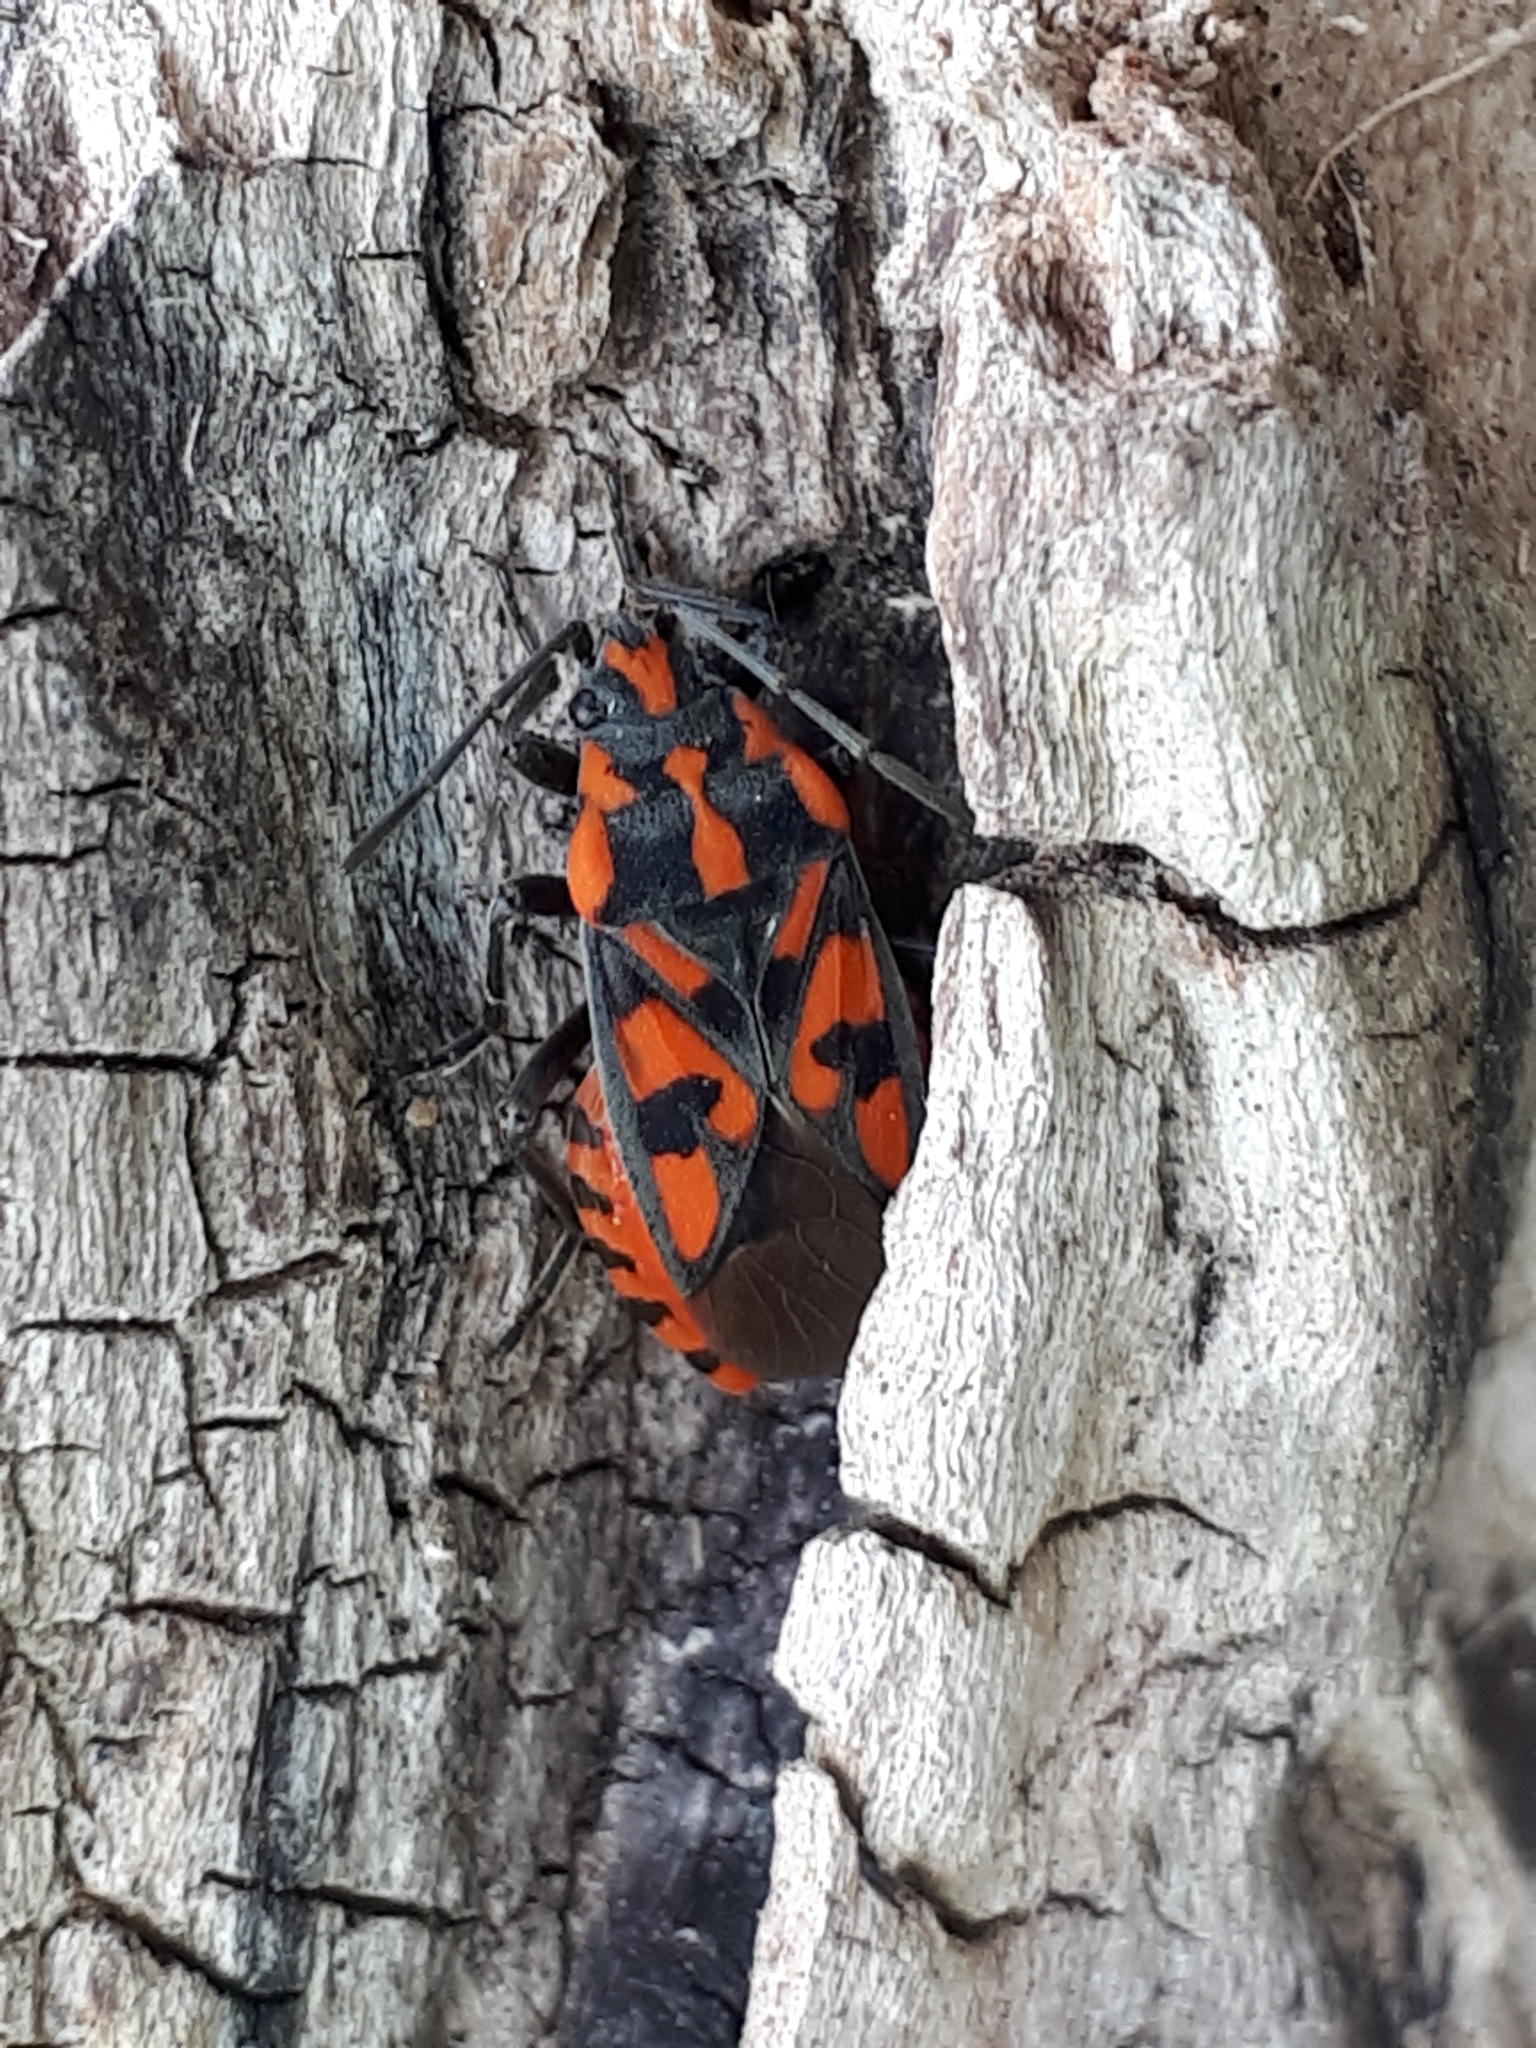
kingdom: Animalia
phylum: Arthropoda
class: Insecta
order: Hemiptera
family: Lygaeidae
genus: Spilostethus
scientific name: Spilostethus saxatilis
